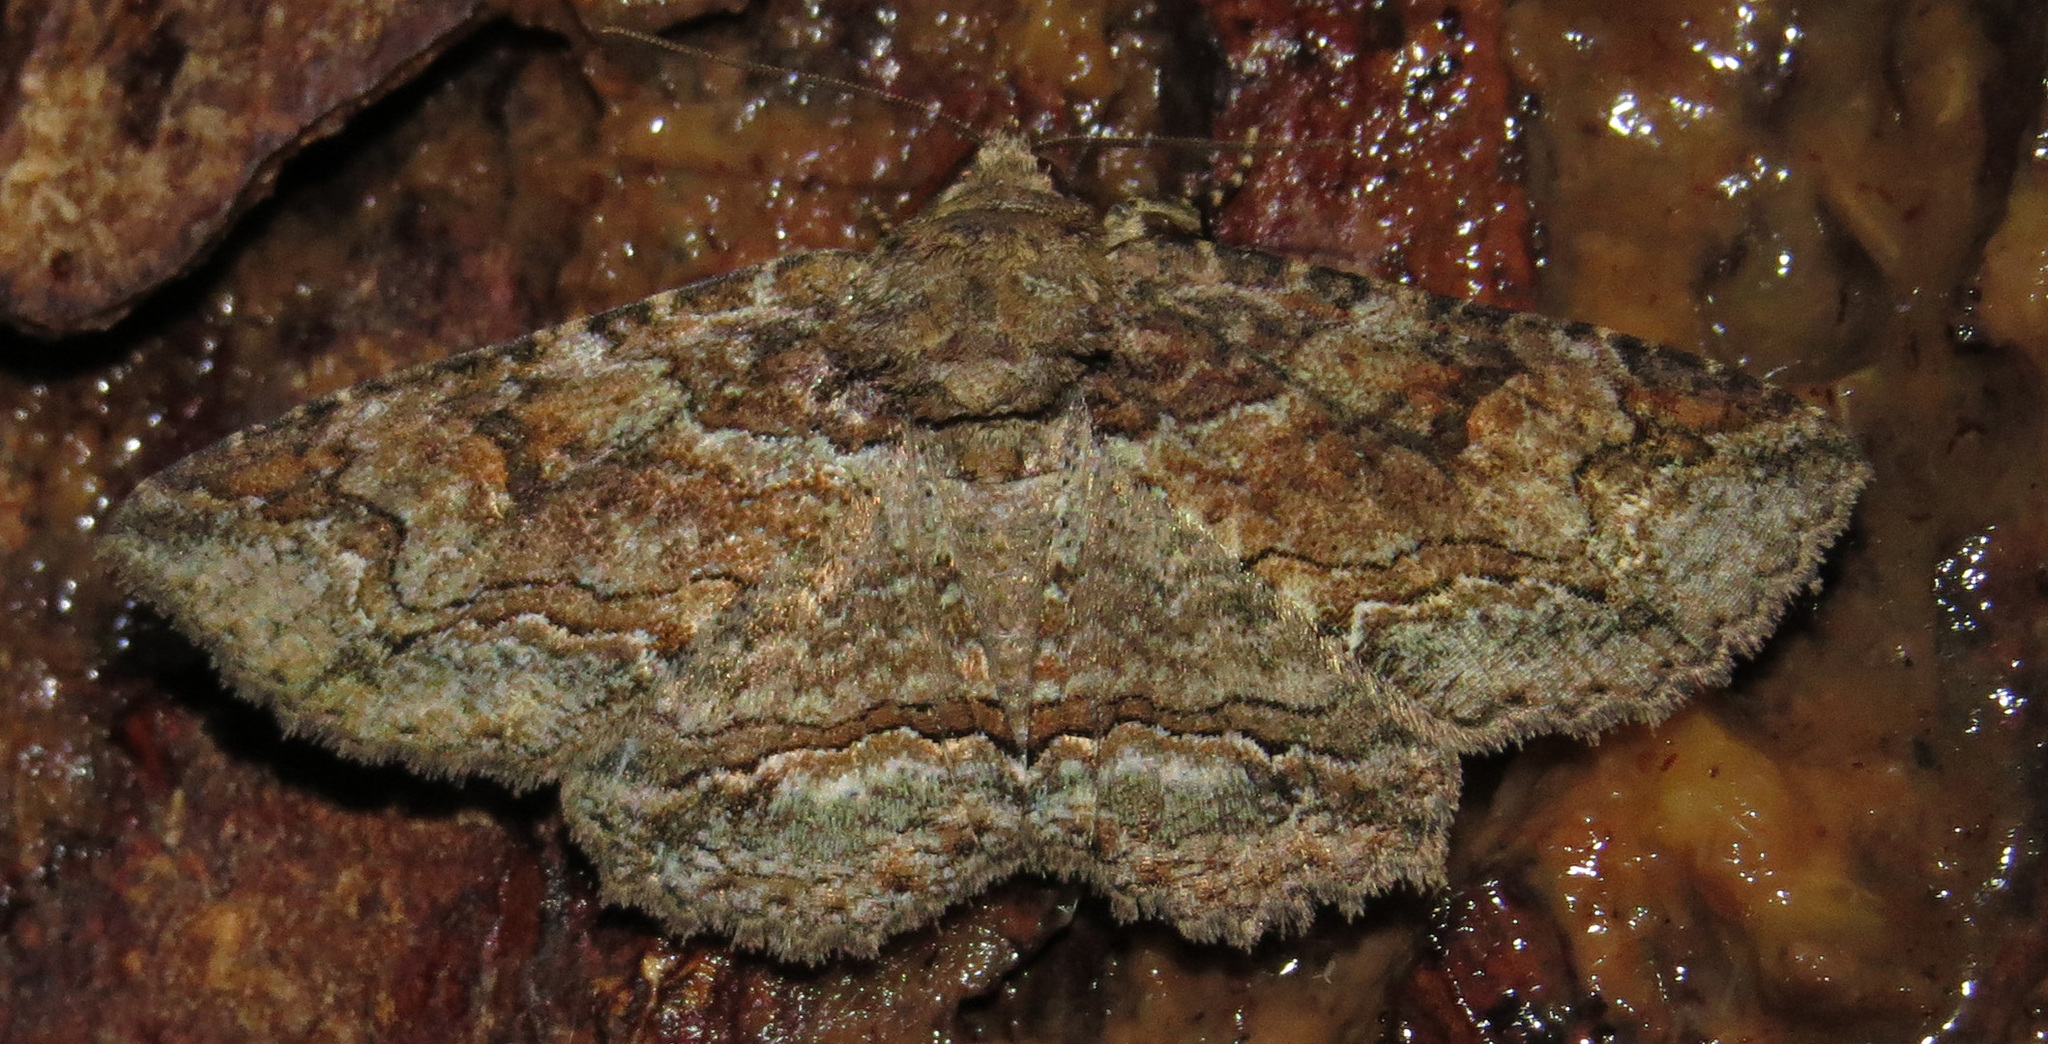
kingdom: Animalia
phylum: Arthropoda
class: Insecta
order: Lepidoptera
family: Erebidae
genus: Zale
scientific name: Zale galbanata
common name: Maple zale
